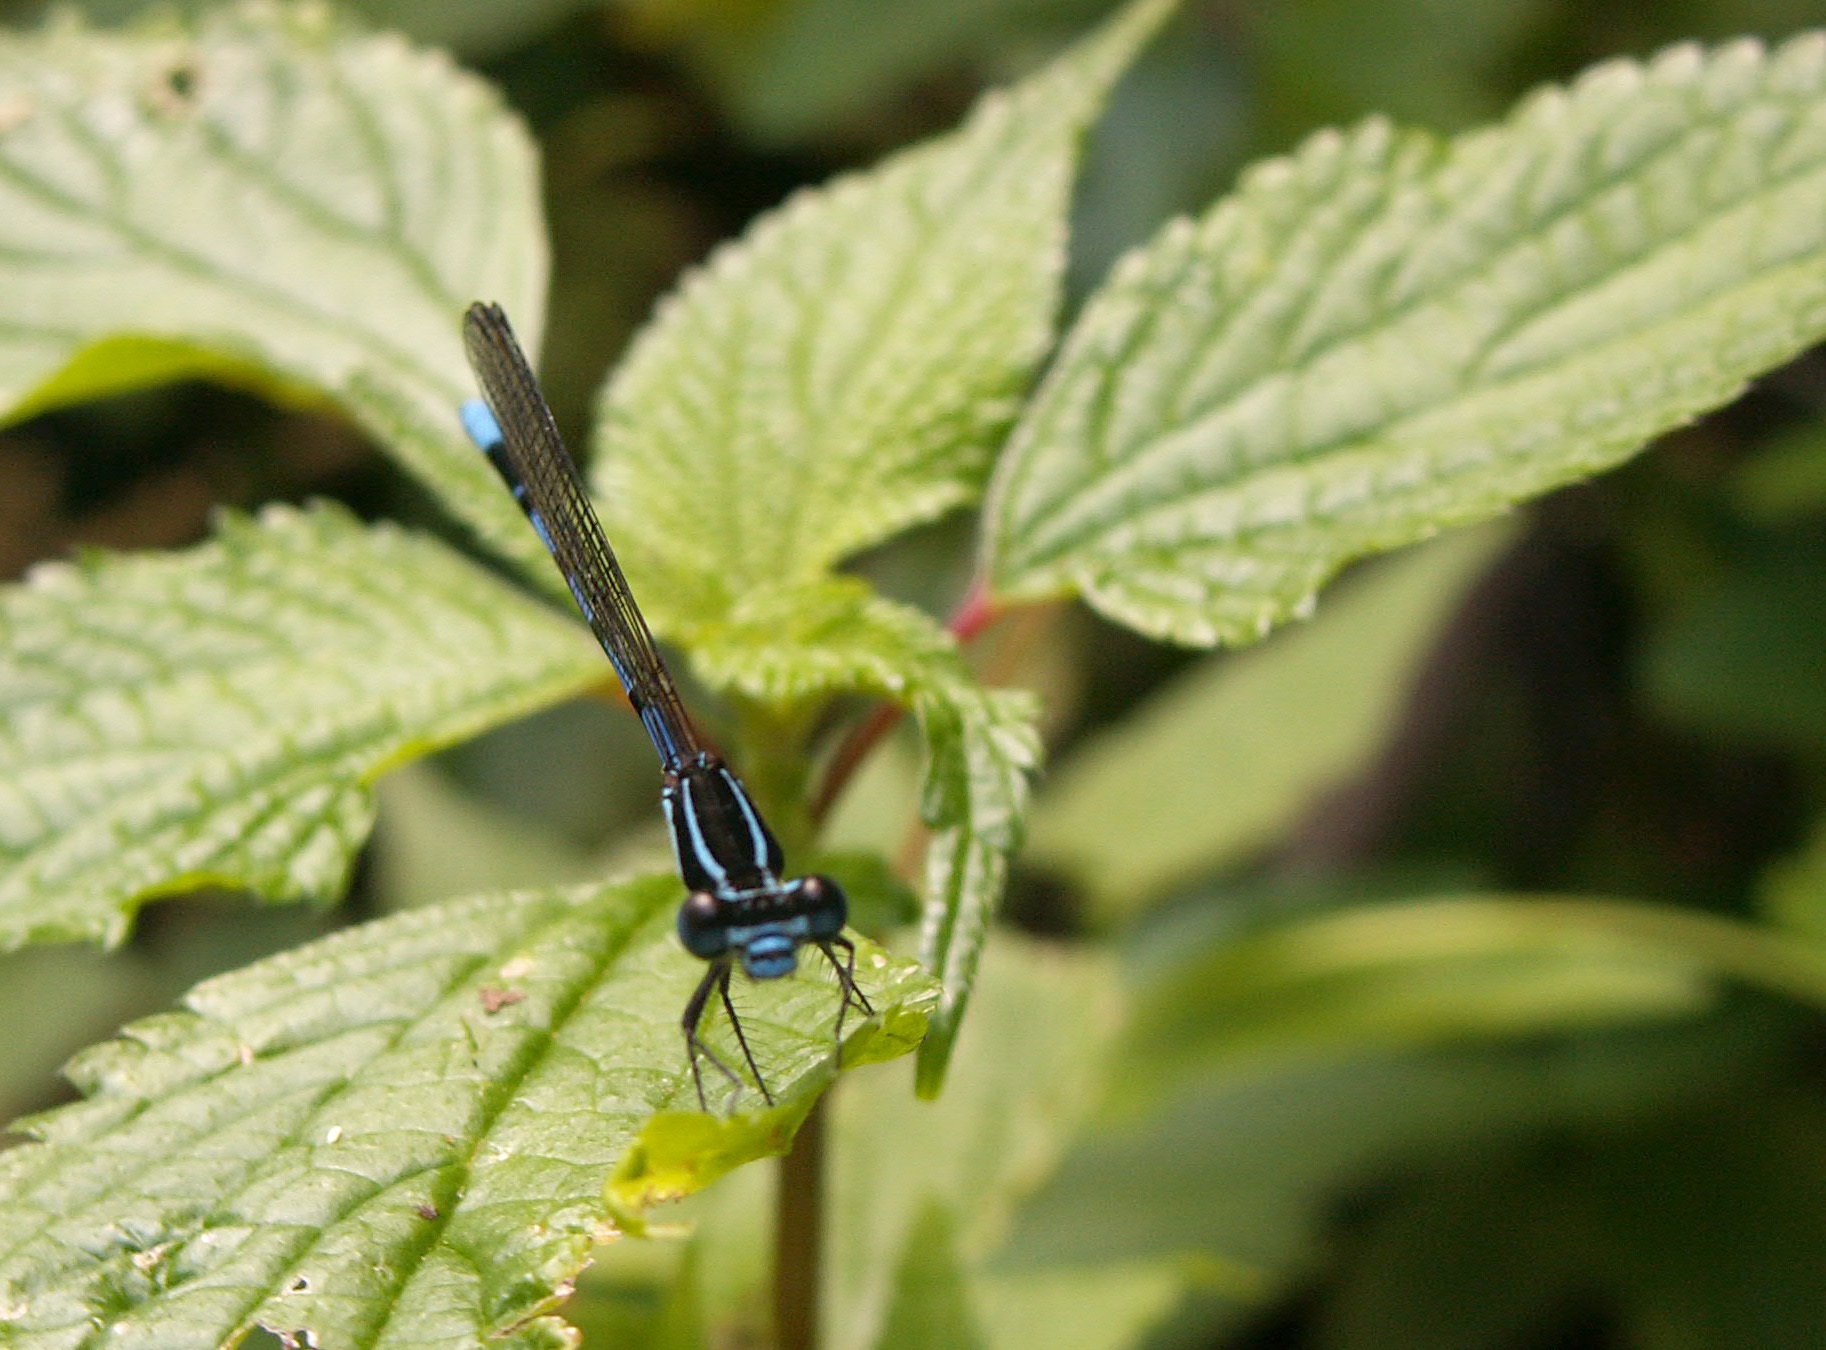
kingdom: Animalia
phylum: Arthropoda
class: Insecta
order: Odonata
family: Coenagrionidae
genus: Argia
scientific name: Argia concinna
